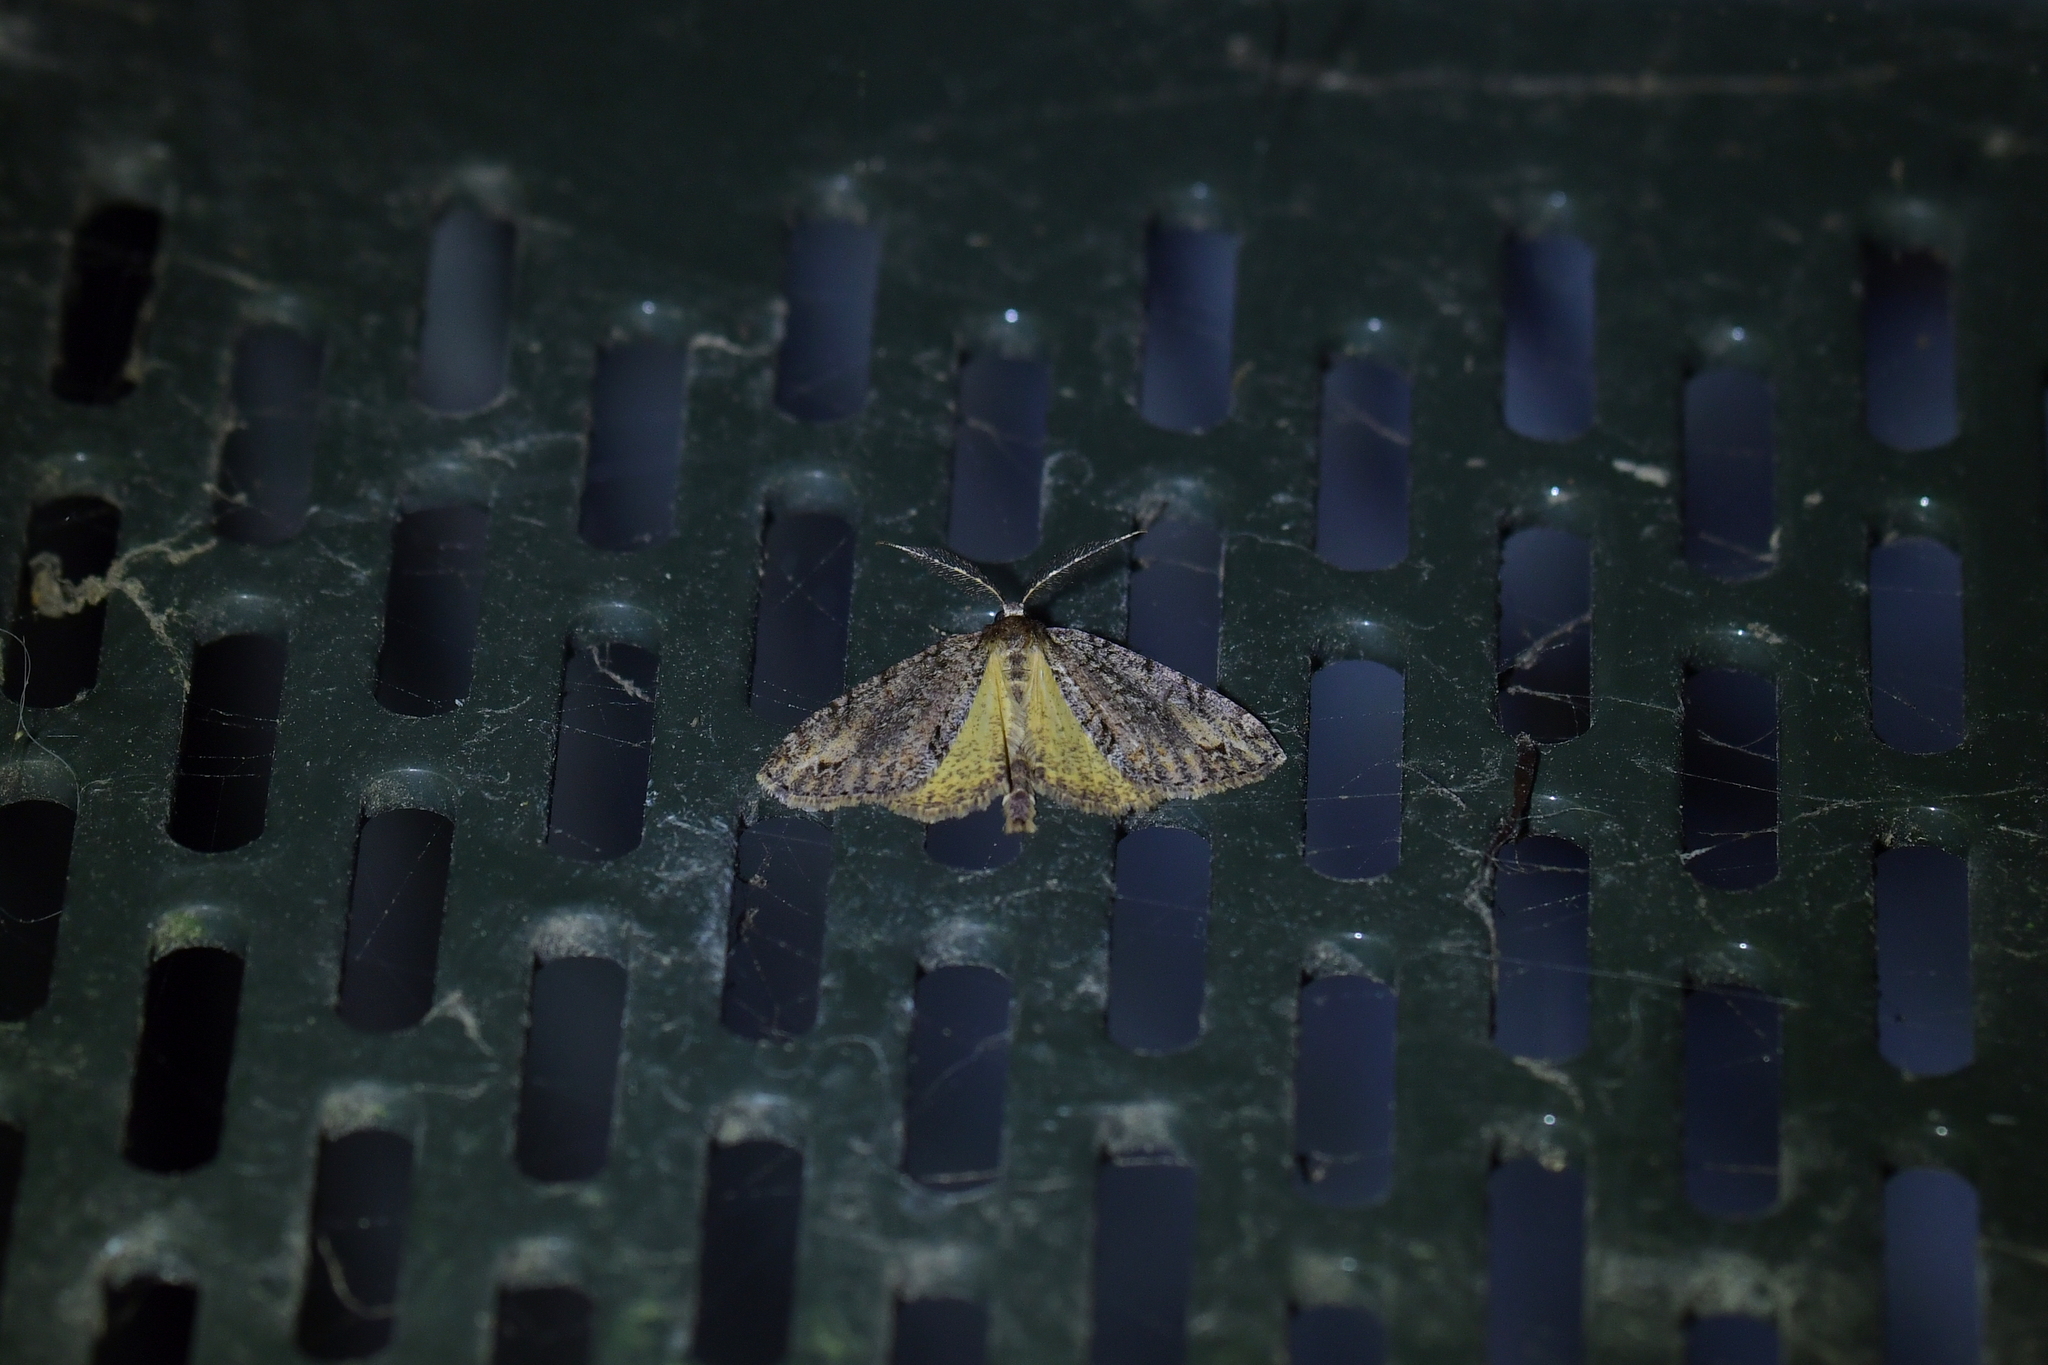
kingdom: Animalia
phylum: Arthropoda
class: Insecta
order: Lepidoptera
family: Geometridae
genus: Pseudocoremia
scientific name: Pseudocoremia suavis
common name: Common forest looper
